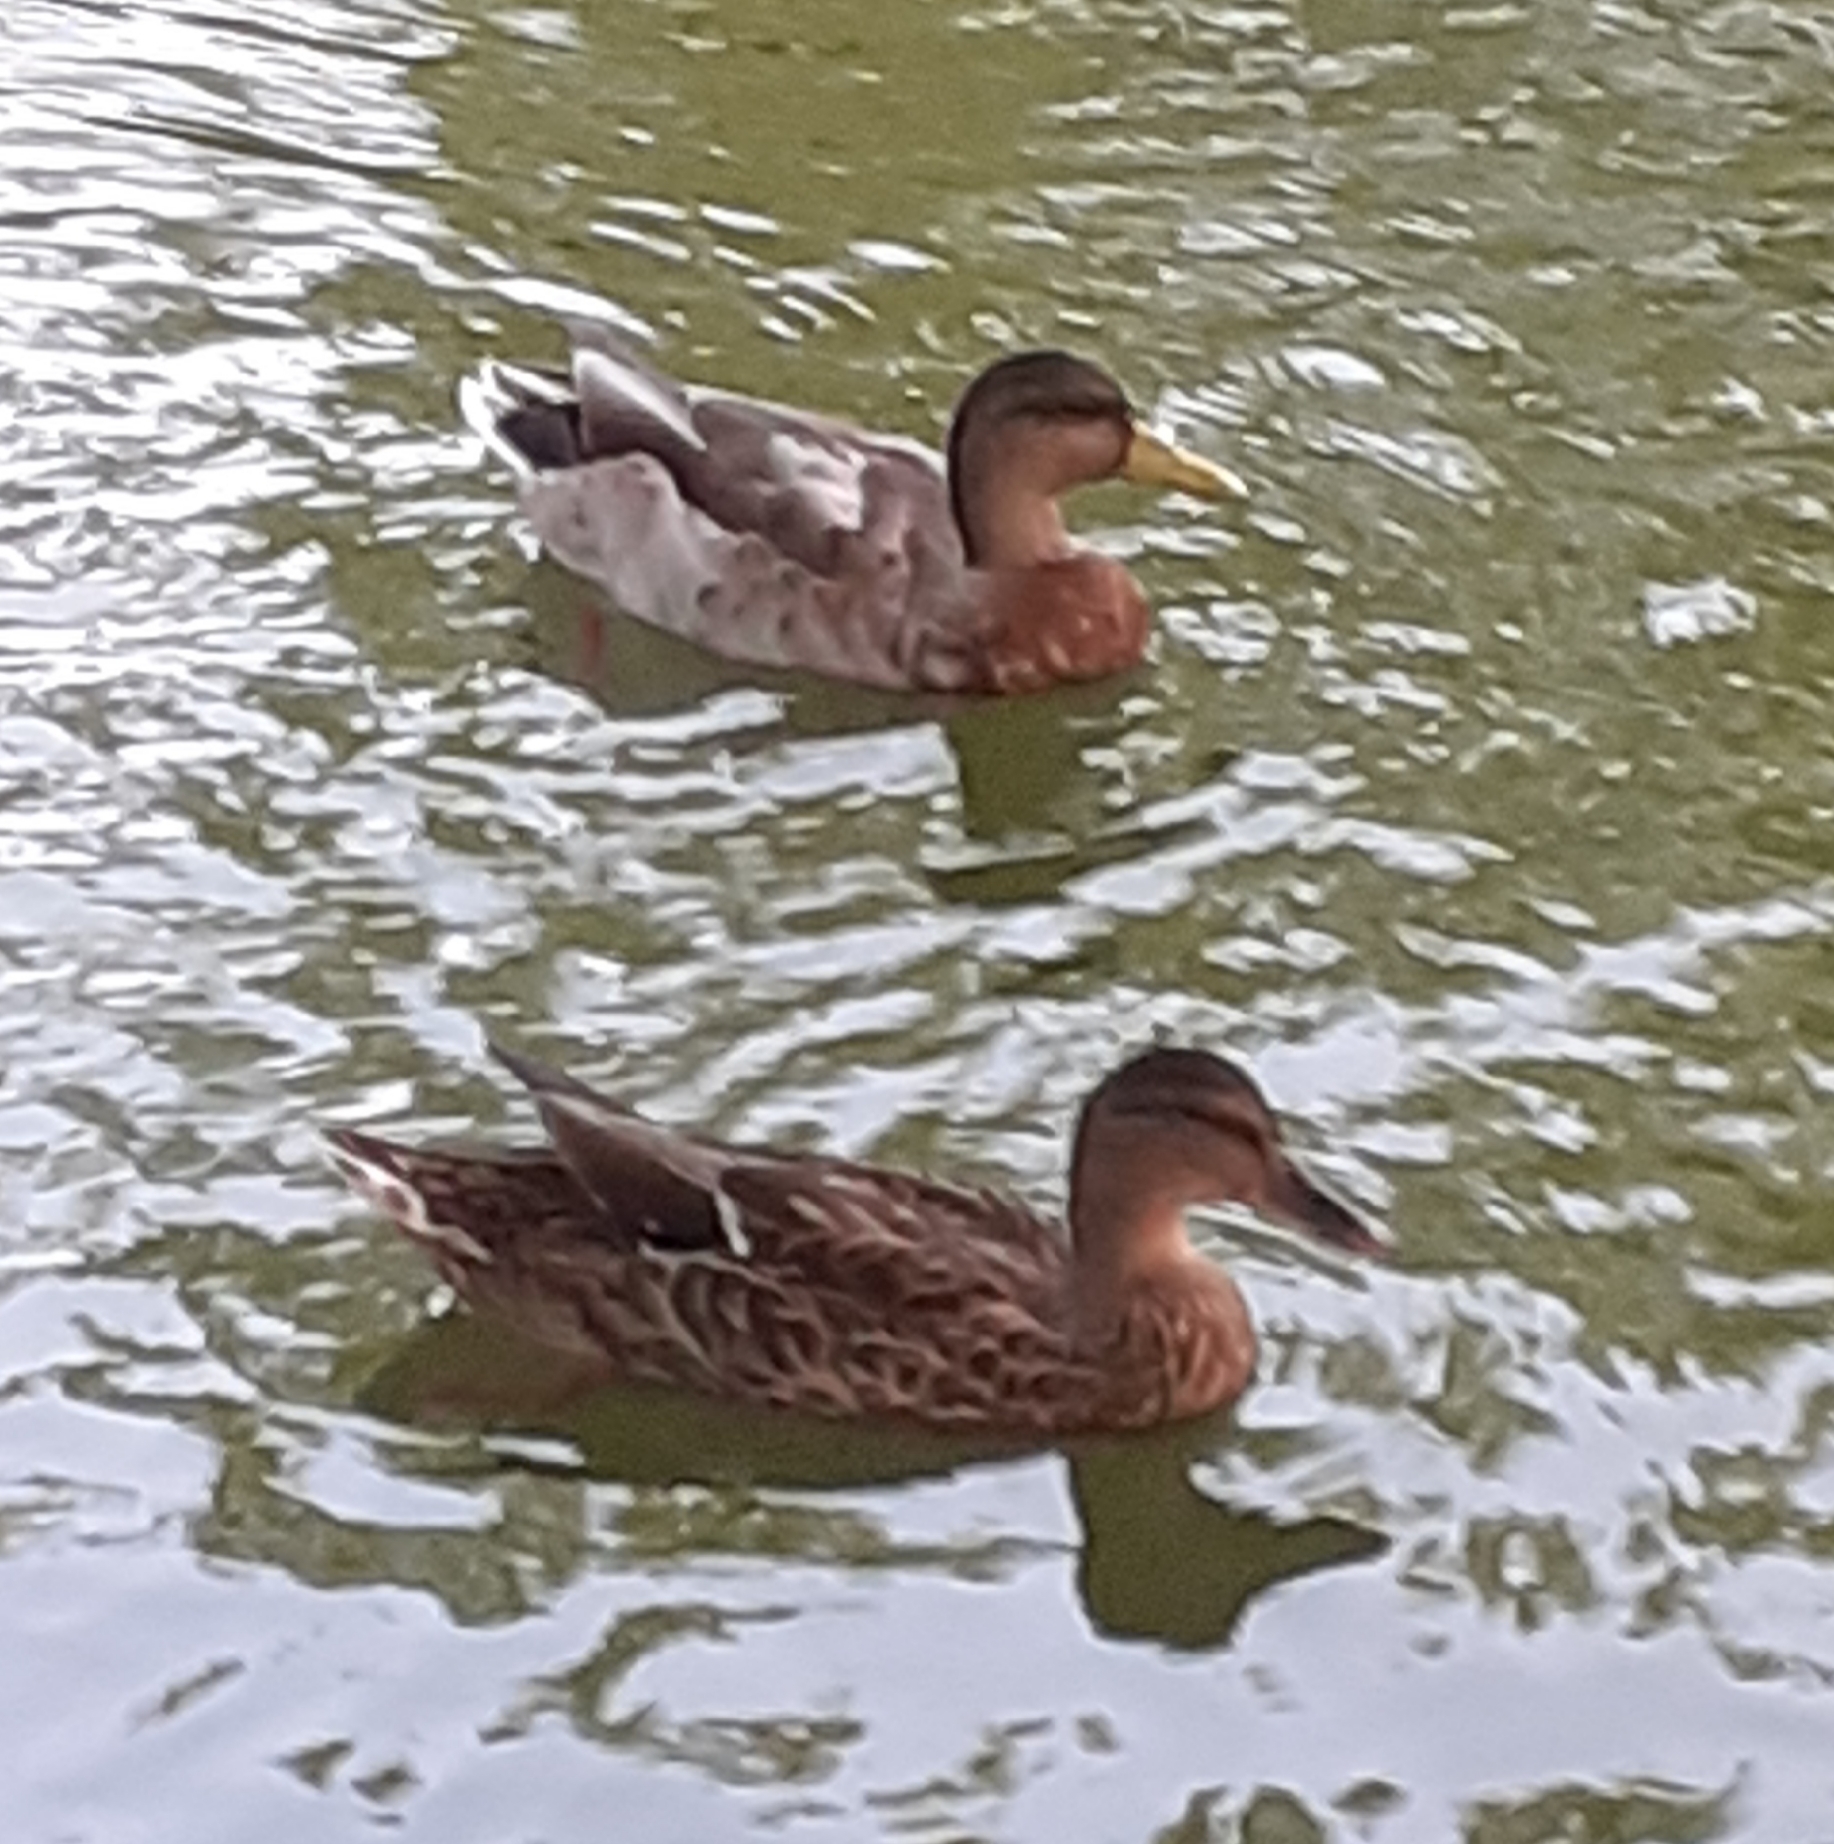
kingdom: Animalia
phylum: Chordata
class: Aves
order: Anseriformes
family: Anatidae
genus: Anas
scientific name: Anas platyrhynchos
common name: Mallard
